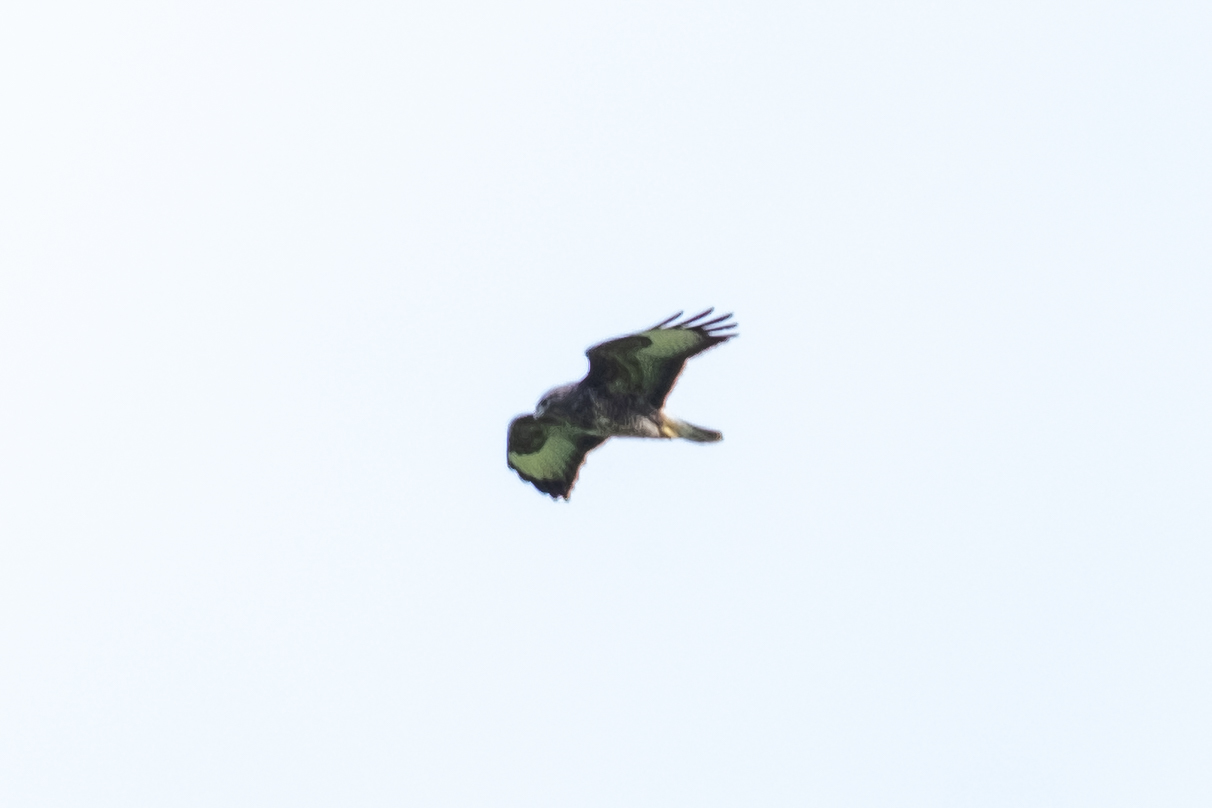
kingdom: Animalia
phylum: Chordata
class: Aves
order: Accipitriformes
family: Accipitridae
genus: Buteo
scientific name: Buteo buteo
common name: Common buzzard
